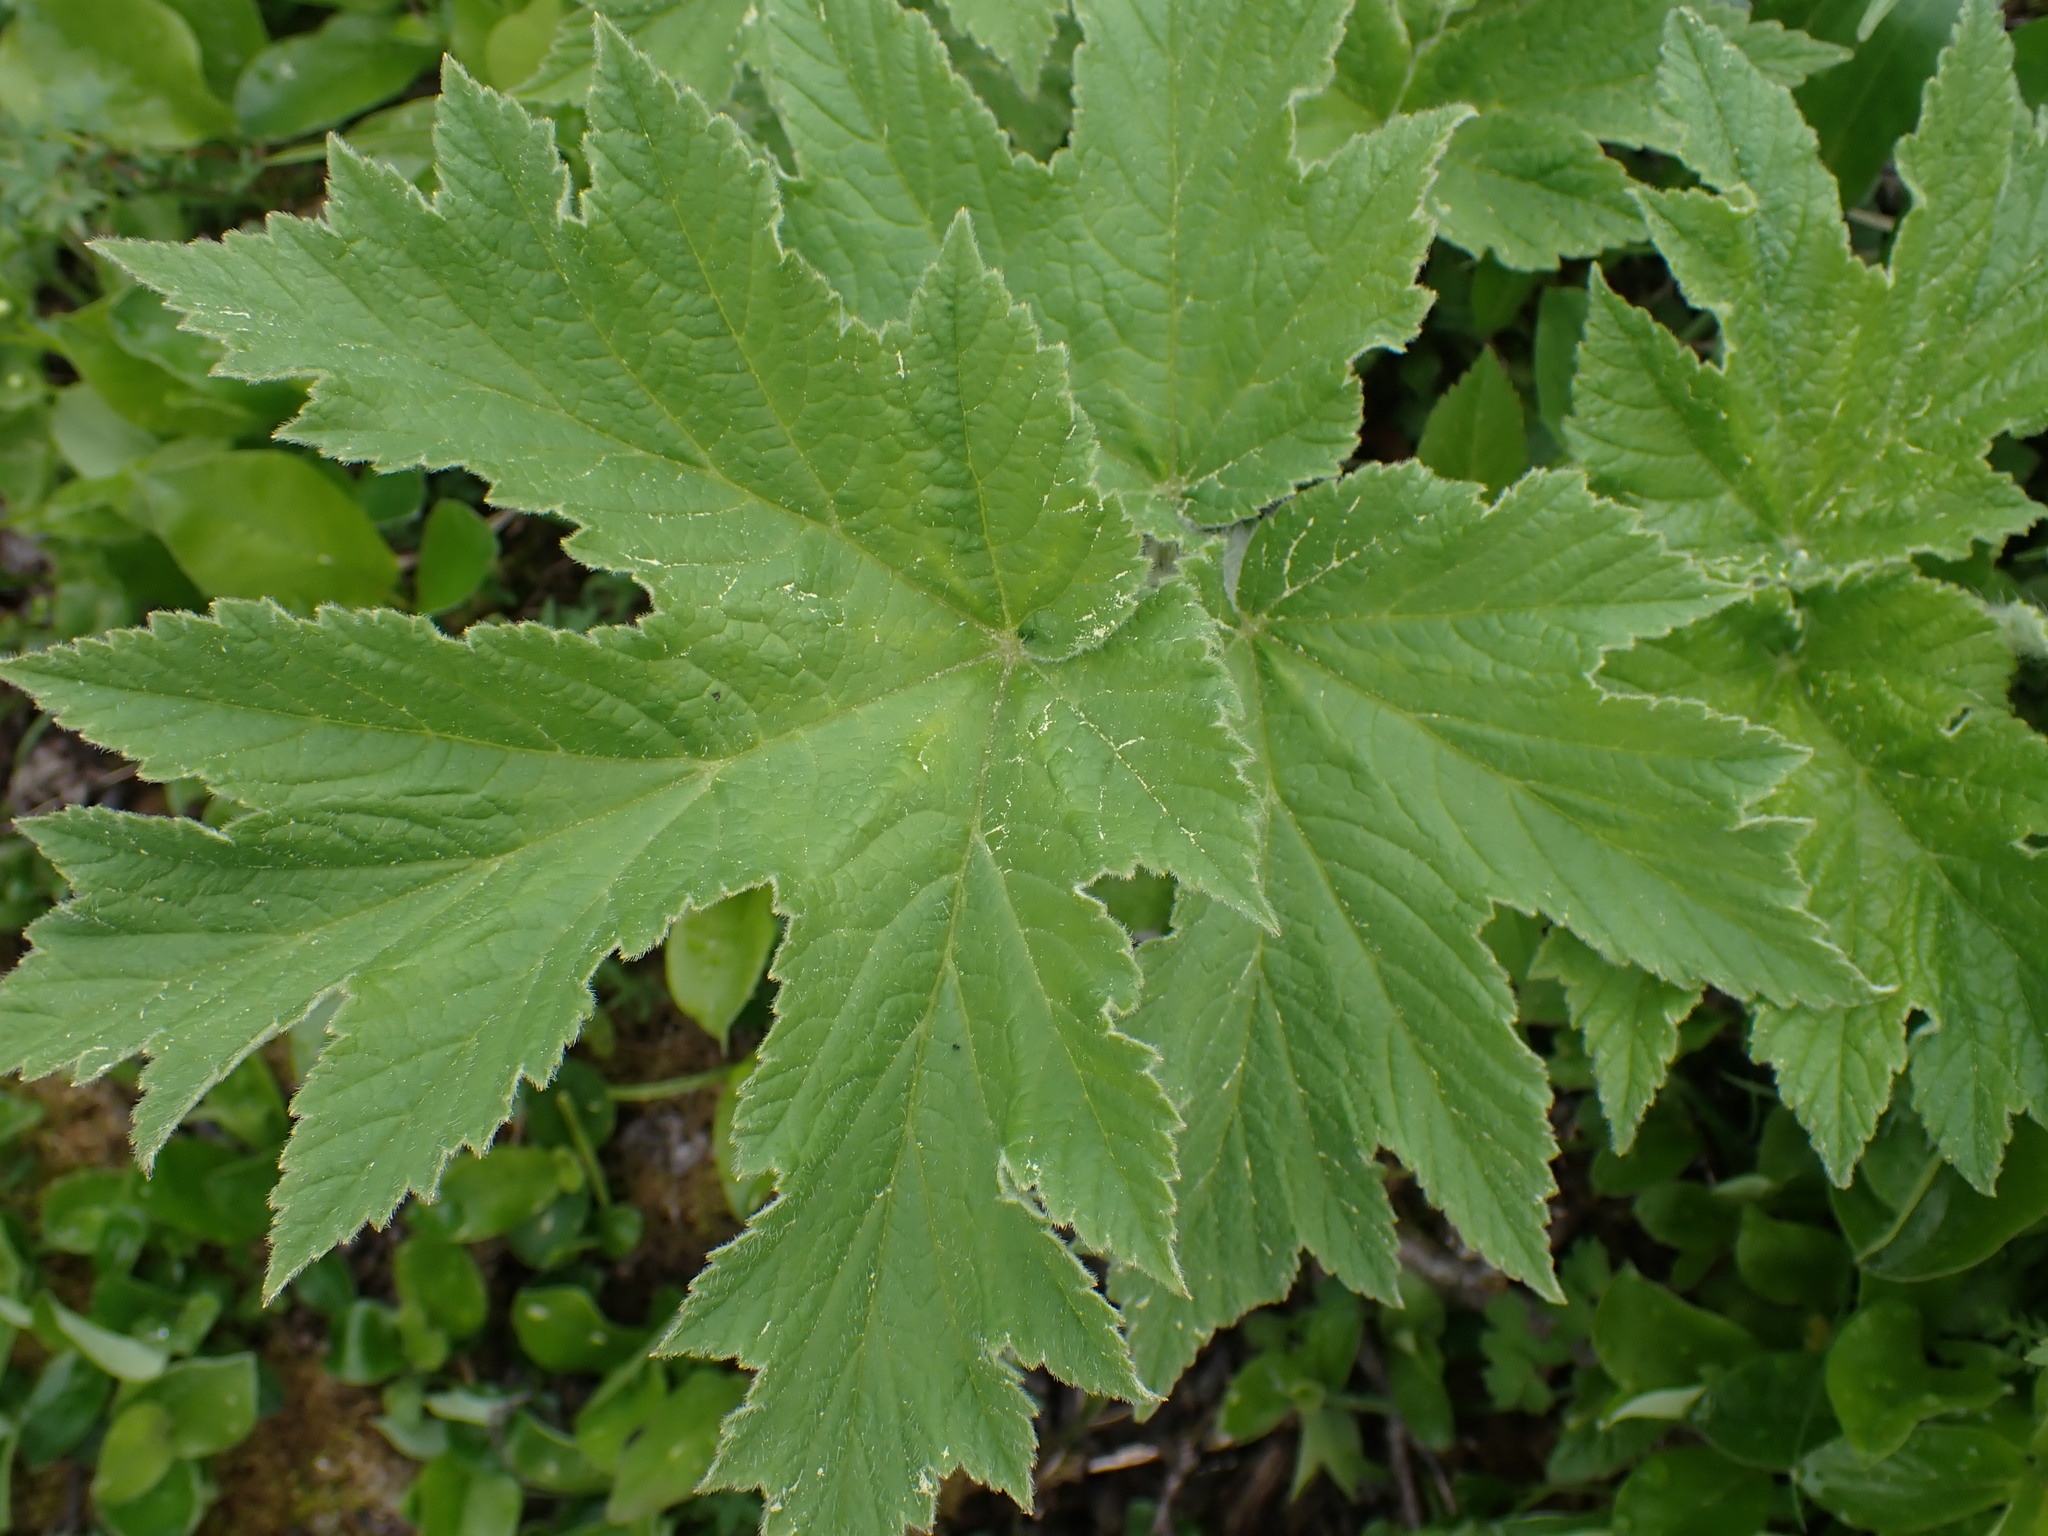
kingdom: Plantae
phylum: Tracheophyta
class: Magnoliopsida
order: Apiales
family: Apiaceae
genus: Heracleum
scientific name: Heracleum maximum
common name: American cow parsnip
